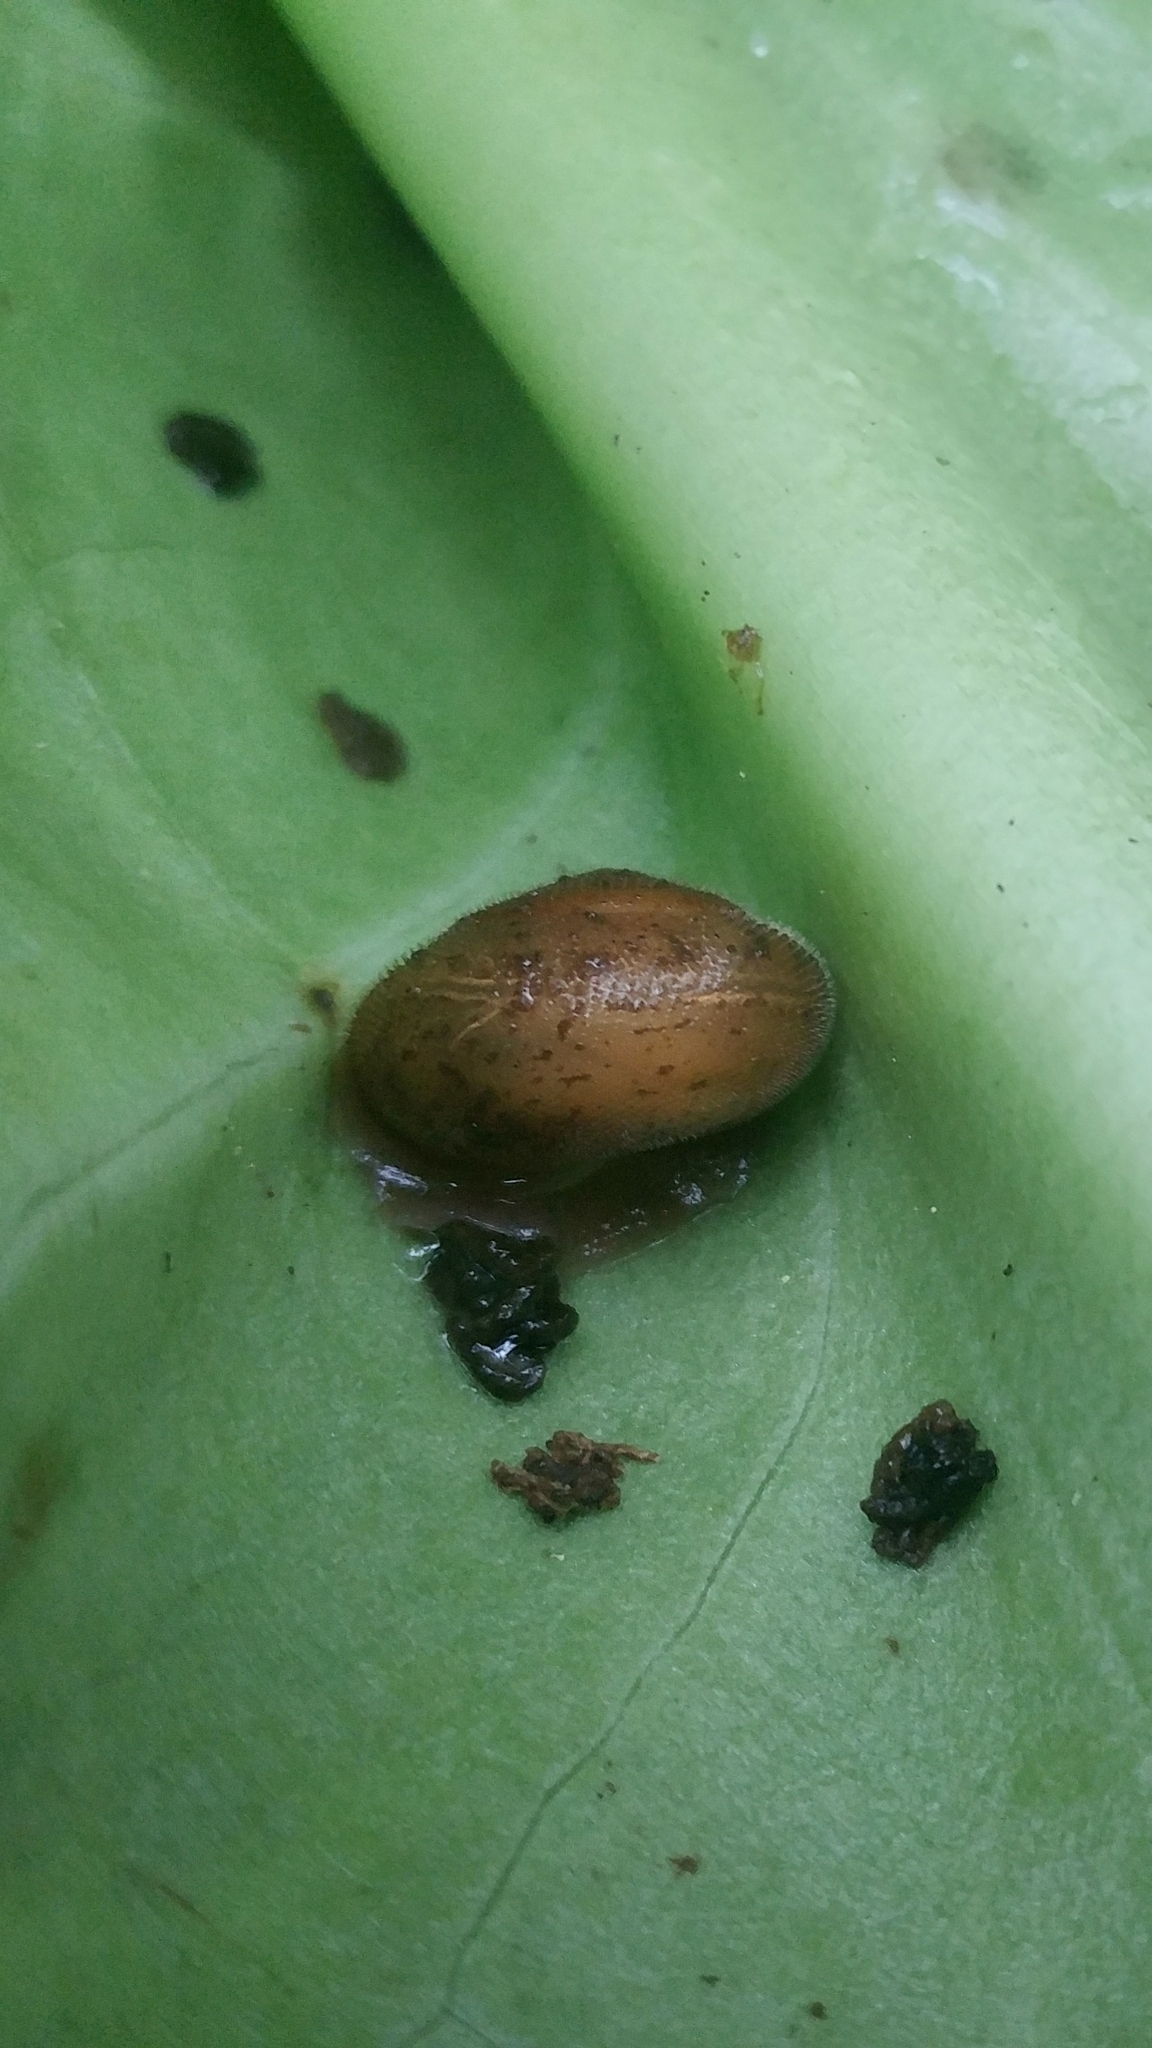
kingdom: Animalia
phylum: Mollusca
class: Gastropoda
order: Stylommatophora
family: Polygyridae
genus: Vespericola
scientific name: Vespericola columbianus
